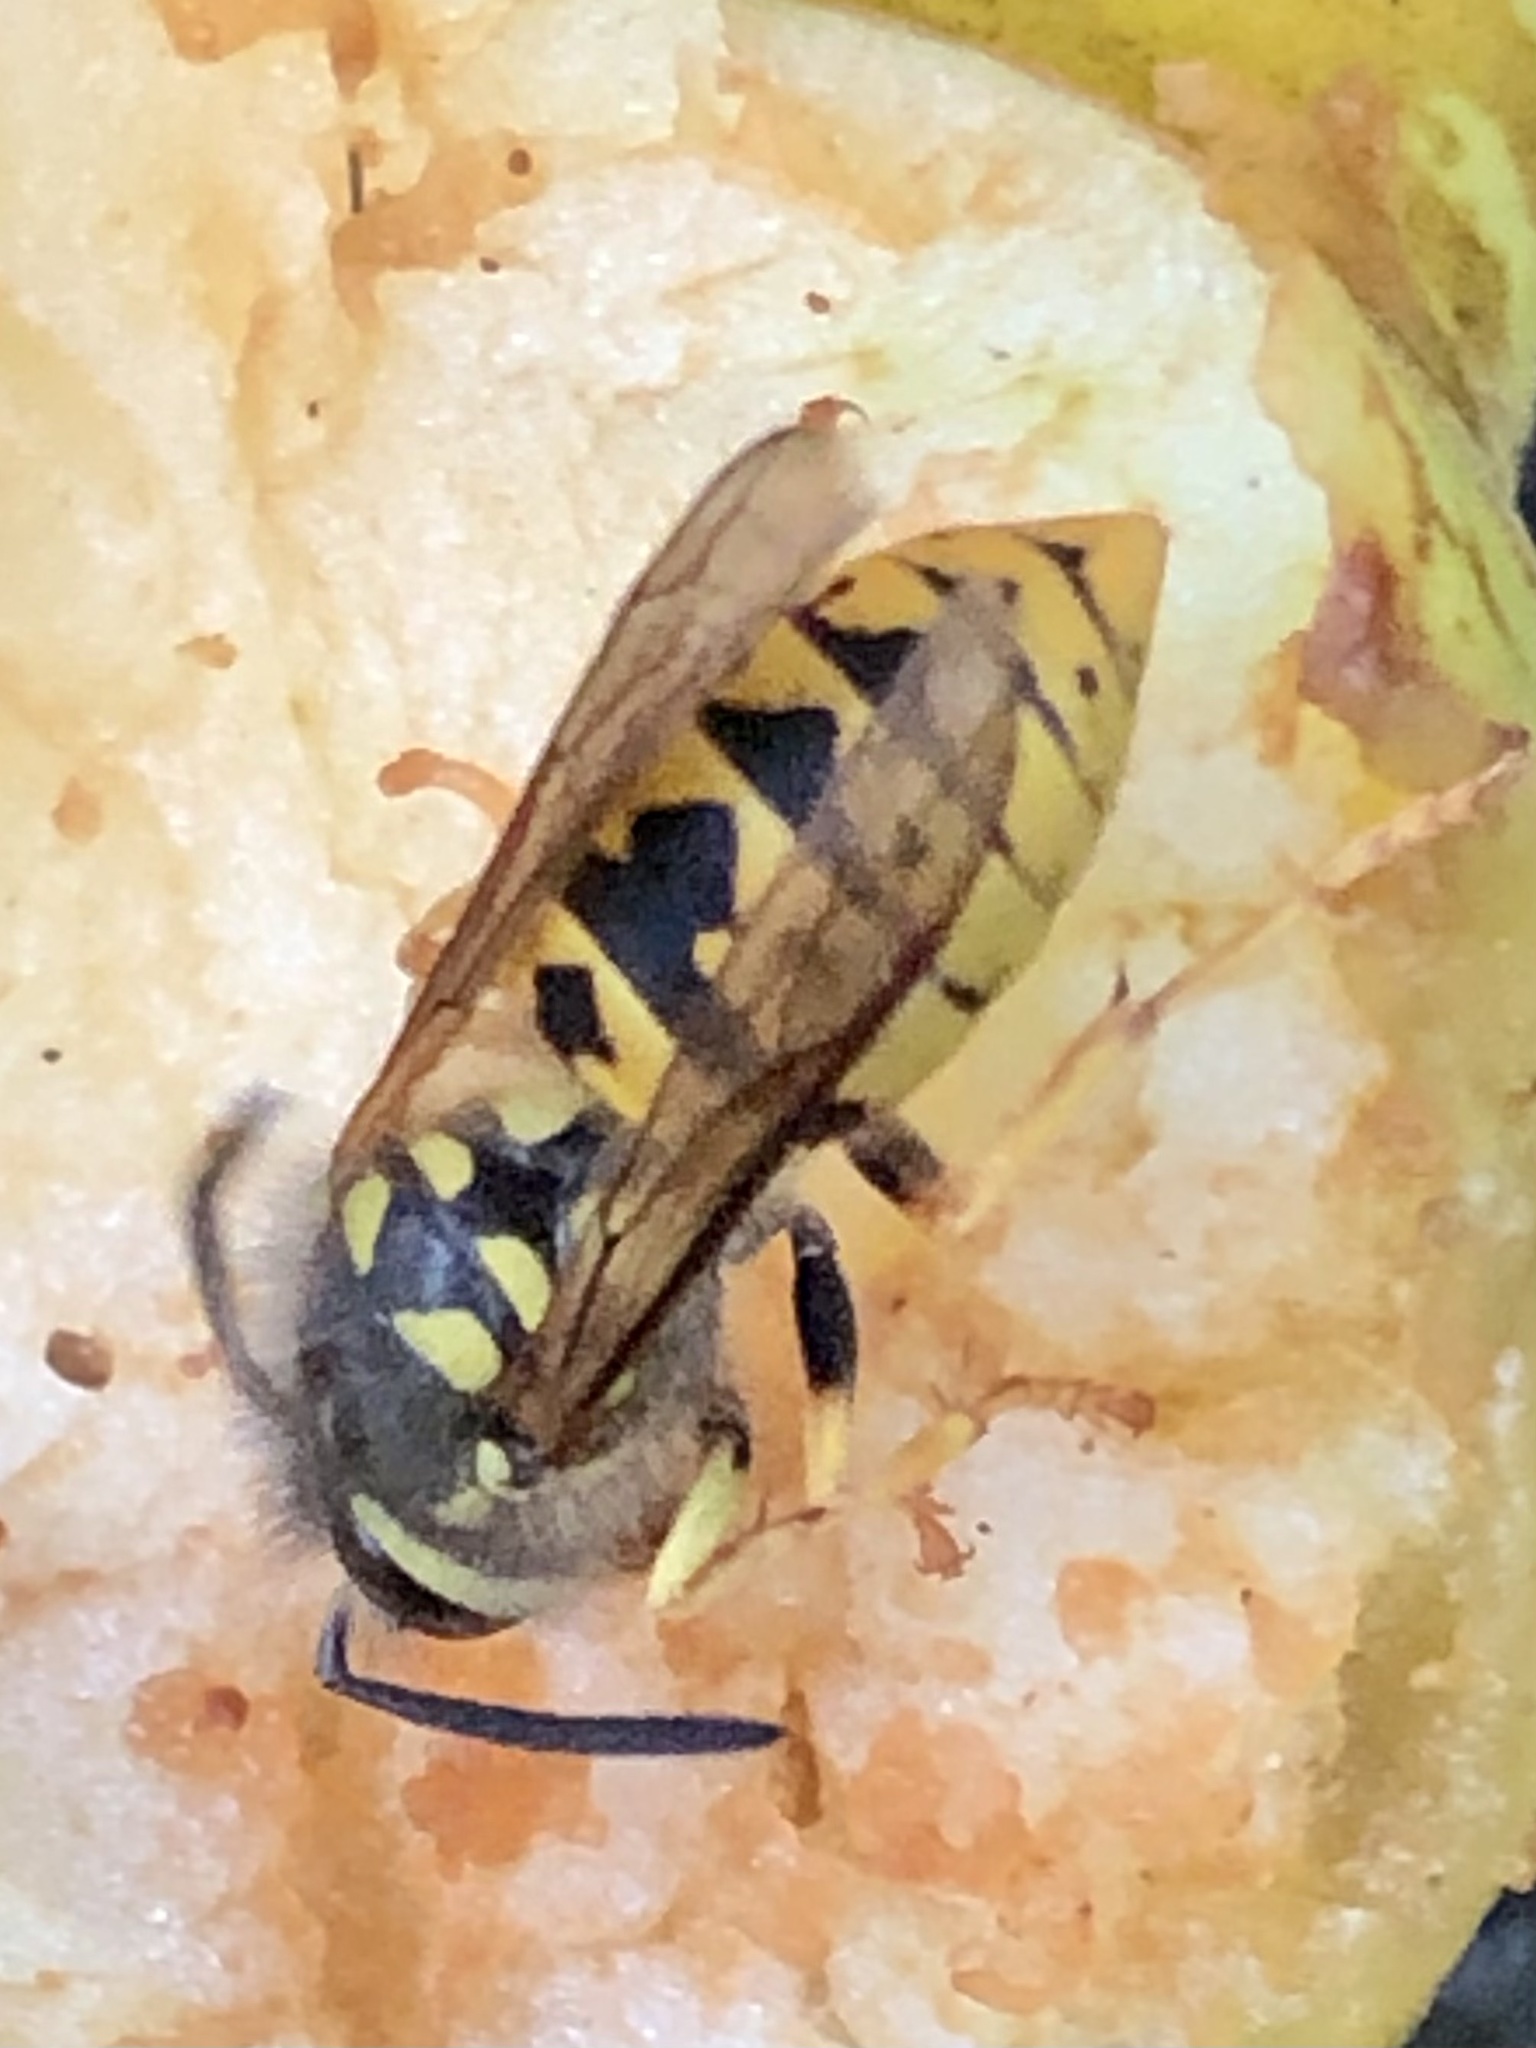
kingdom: Animalia
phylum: Arthropoda
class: Insecta
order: Hymenoptera
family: Vespidae
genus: Vespula
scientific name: Vespula germanica
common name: German wasp
